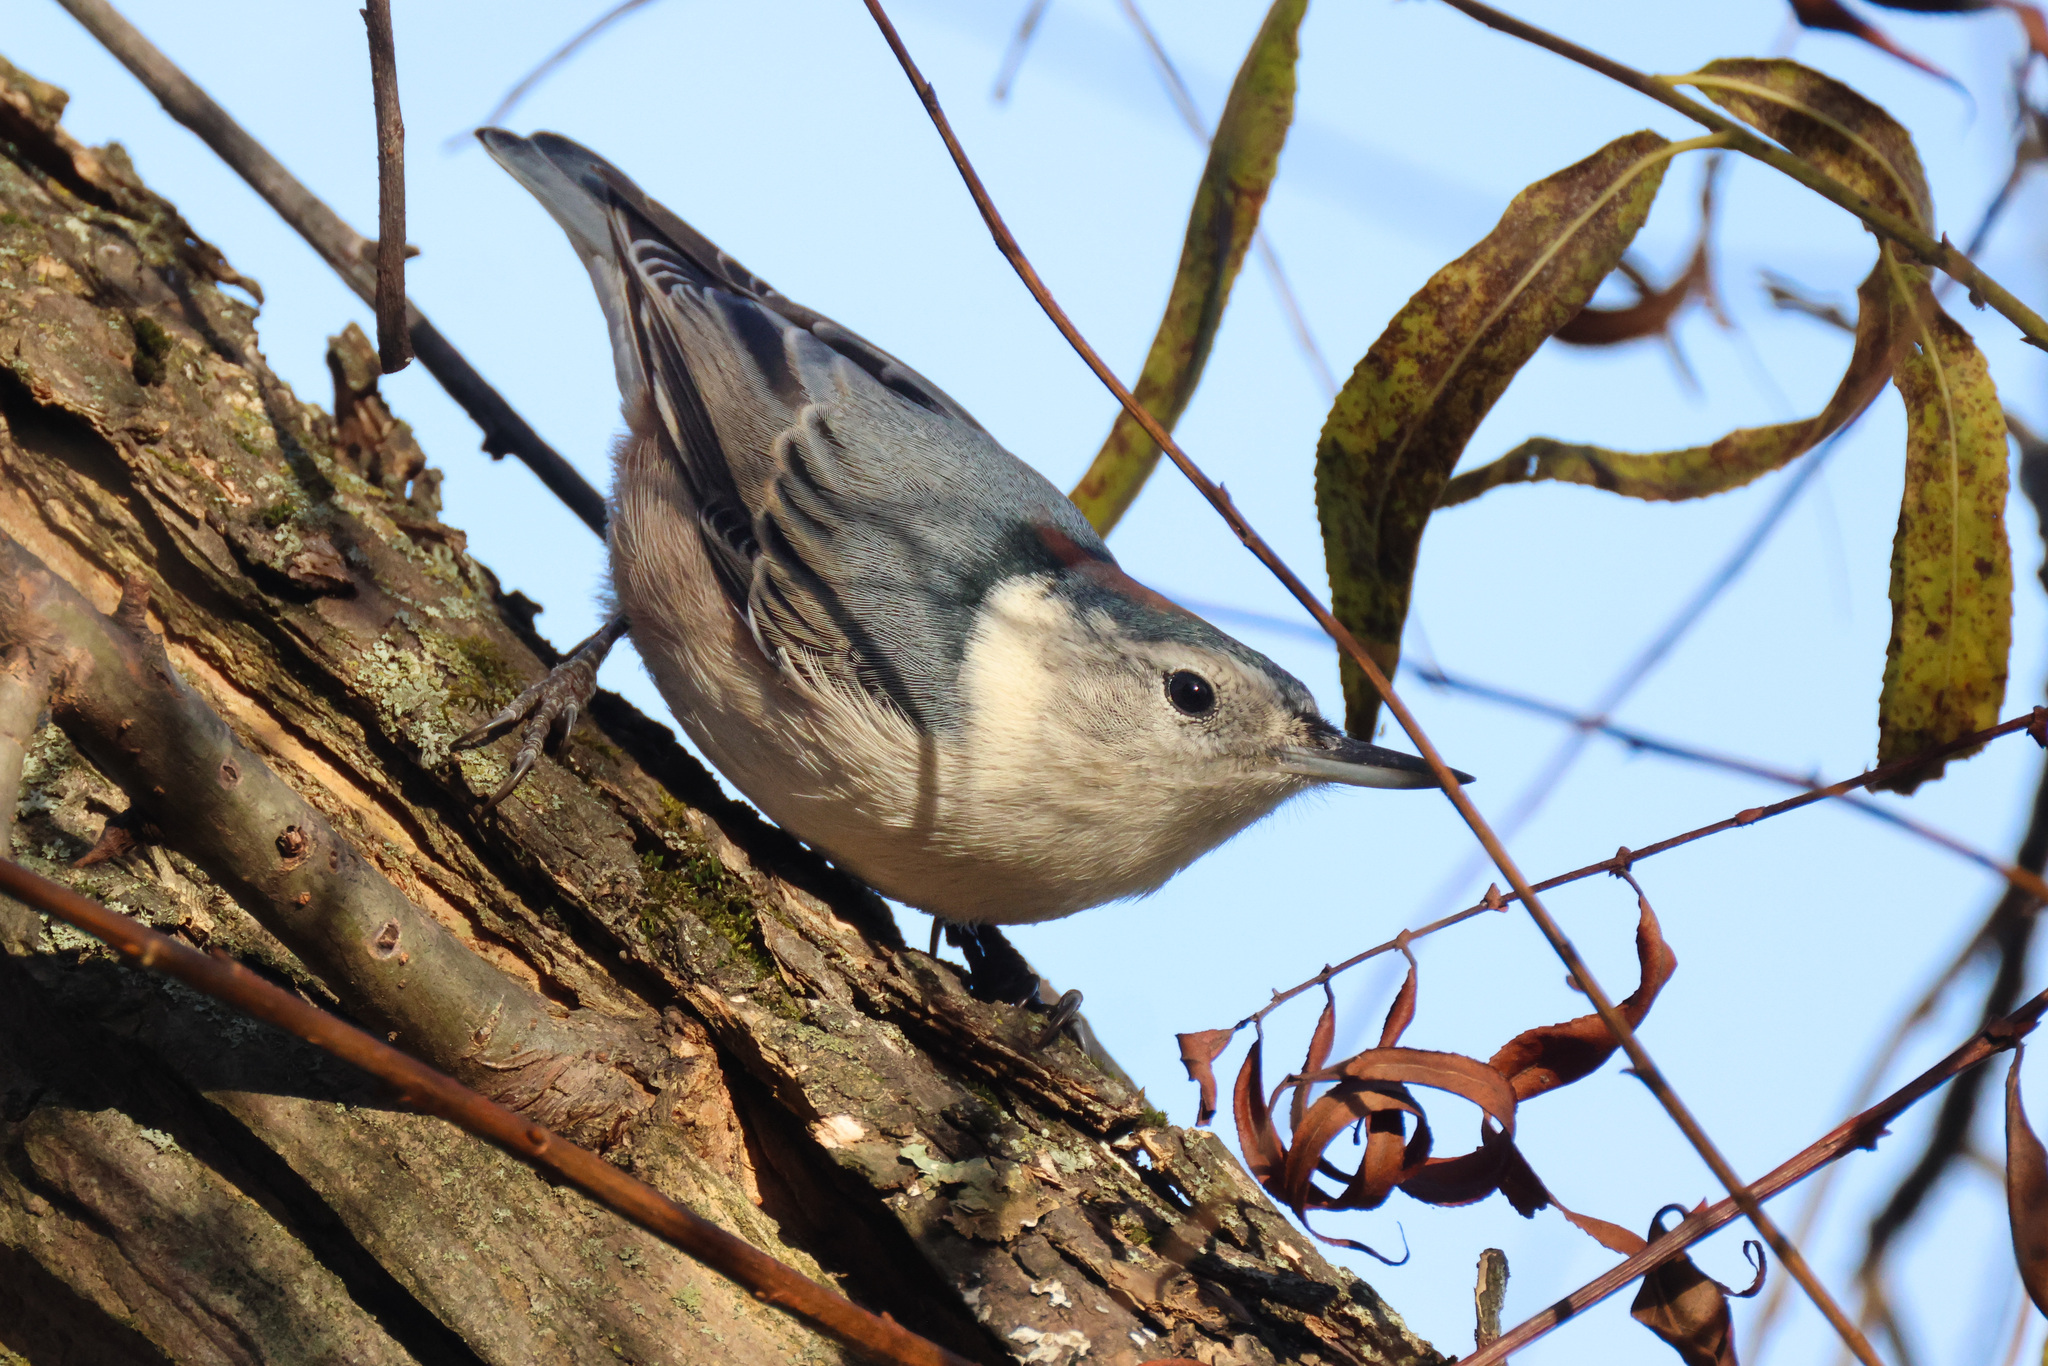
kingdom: Animalia
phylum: Chordata
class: Aves
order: Passeriformes
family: Sittidae
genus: Sitta
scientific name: Sitta carolinensis
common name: White-breasted nuthatch
